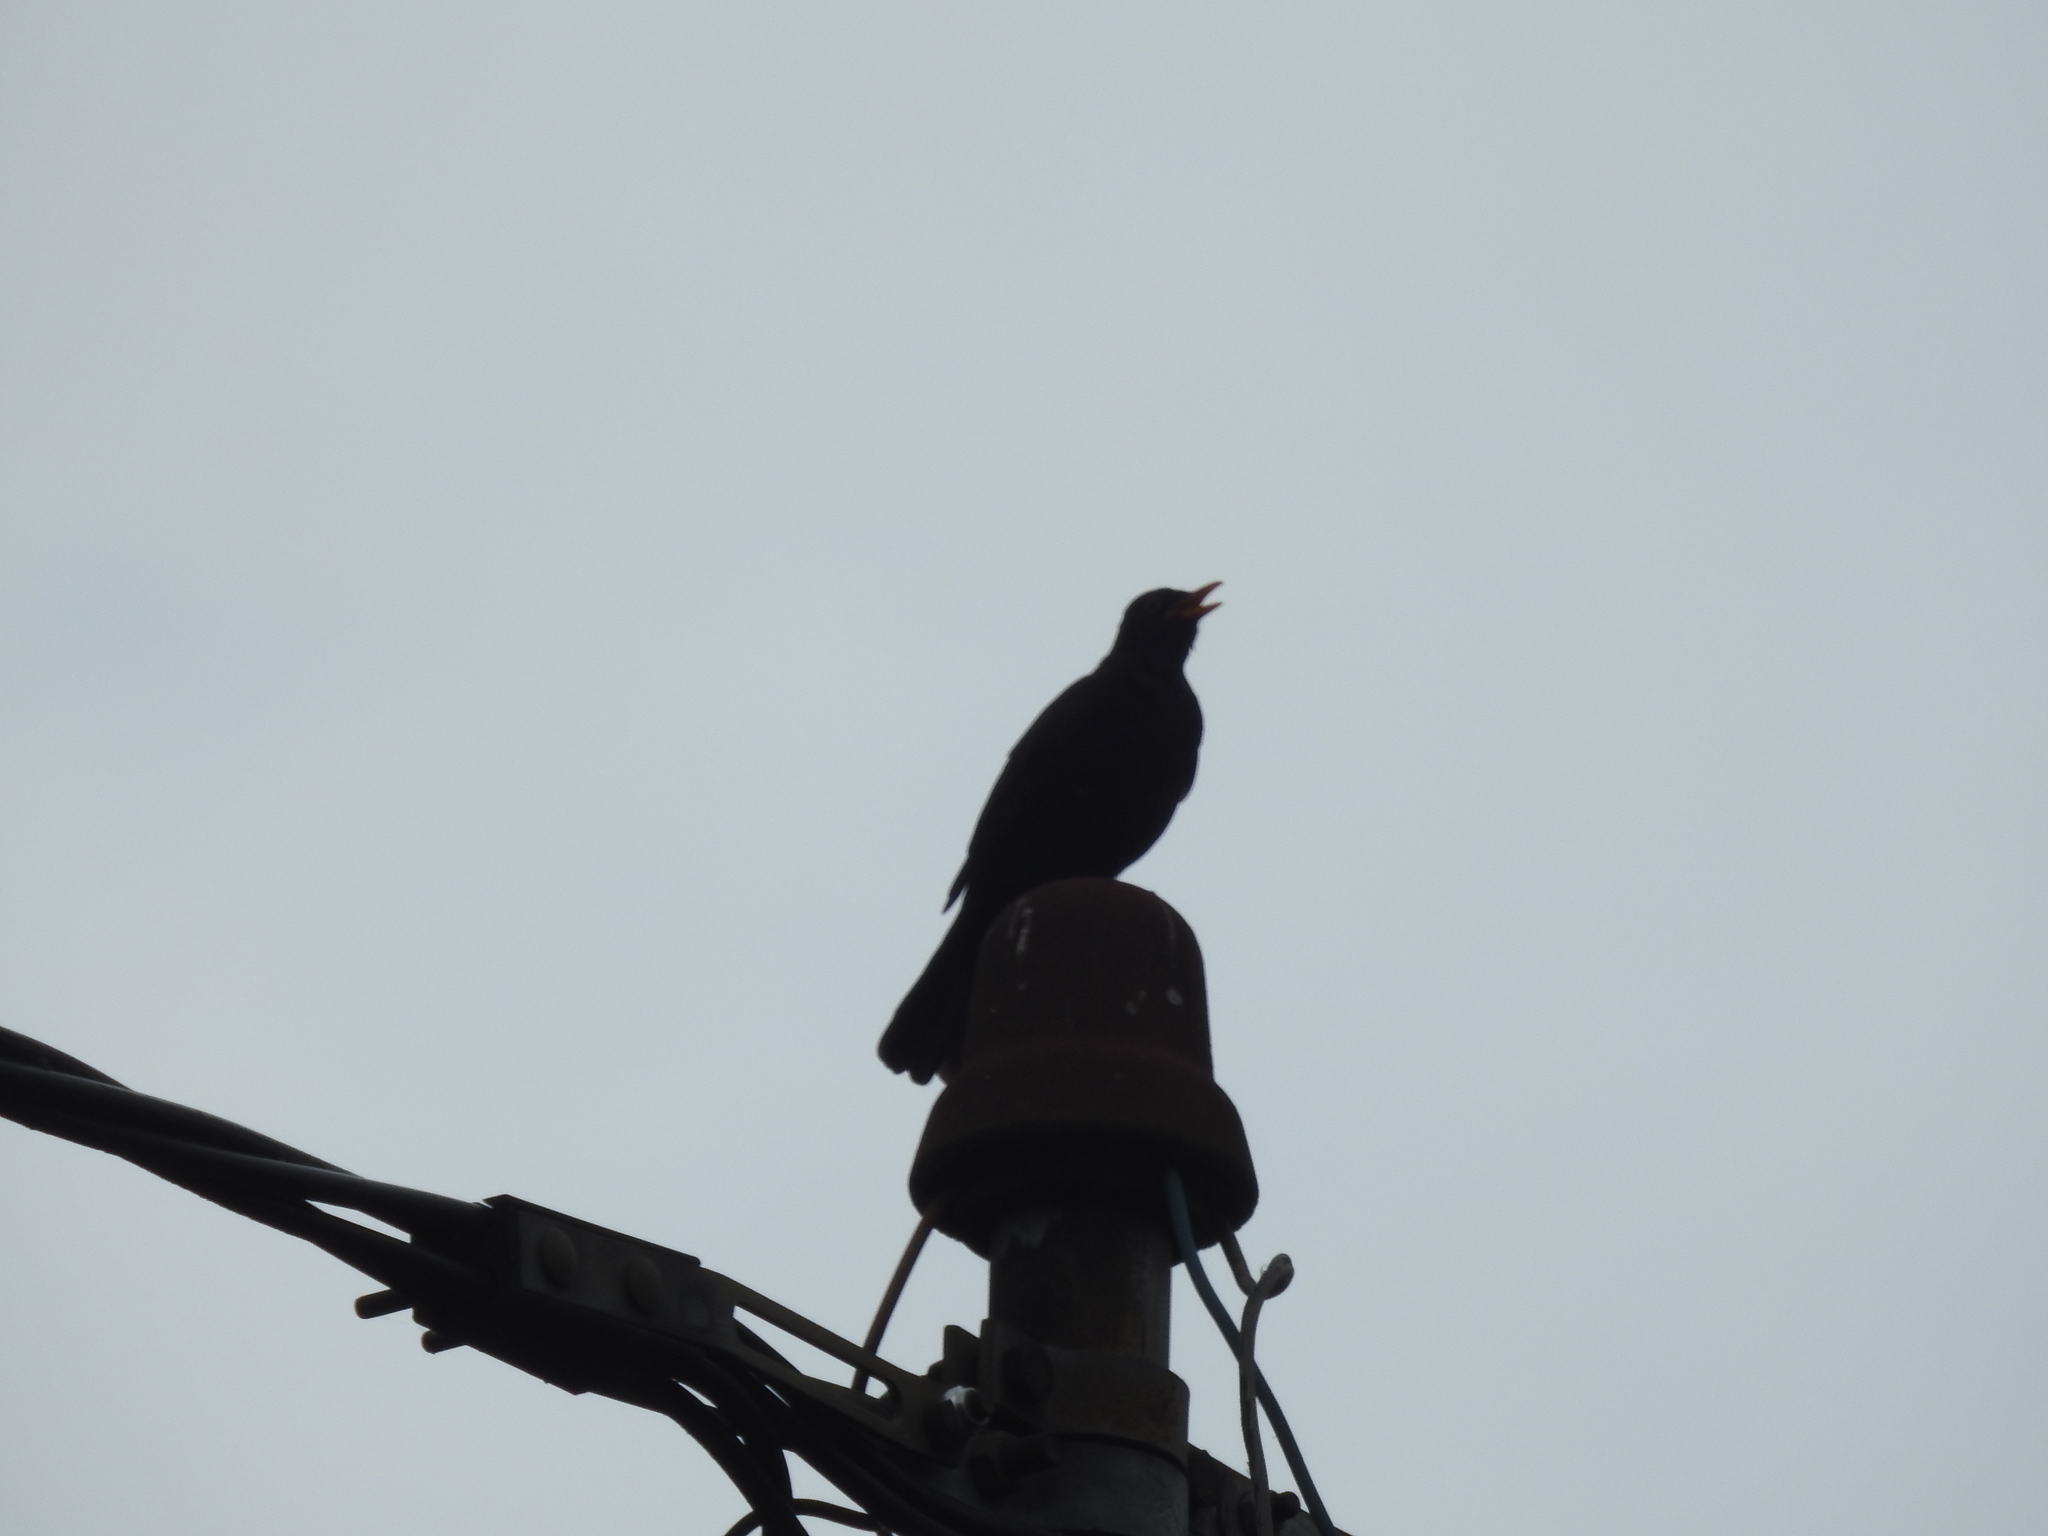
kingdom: Animalia
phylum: Chordata
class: Aves
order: Passeriformes
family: Turdidae
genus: Turdus
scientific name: Turdus merula
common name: Common blackbird
